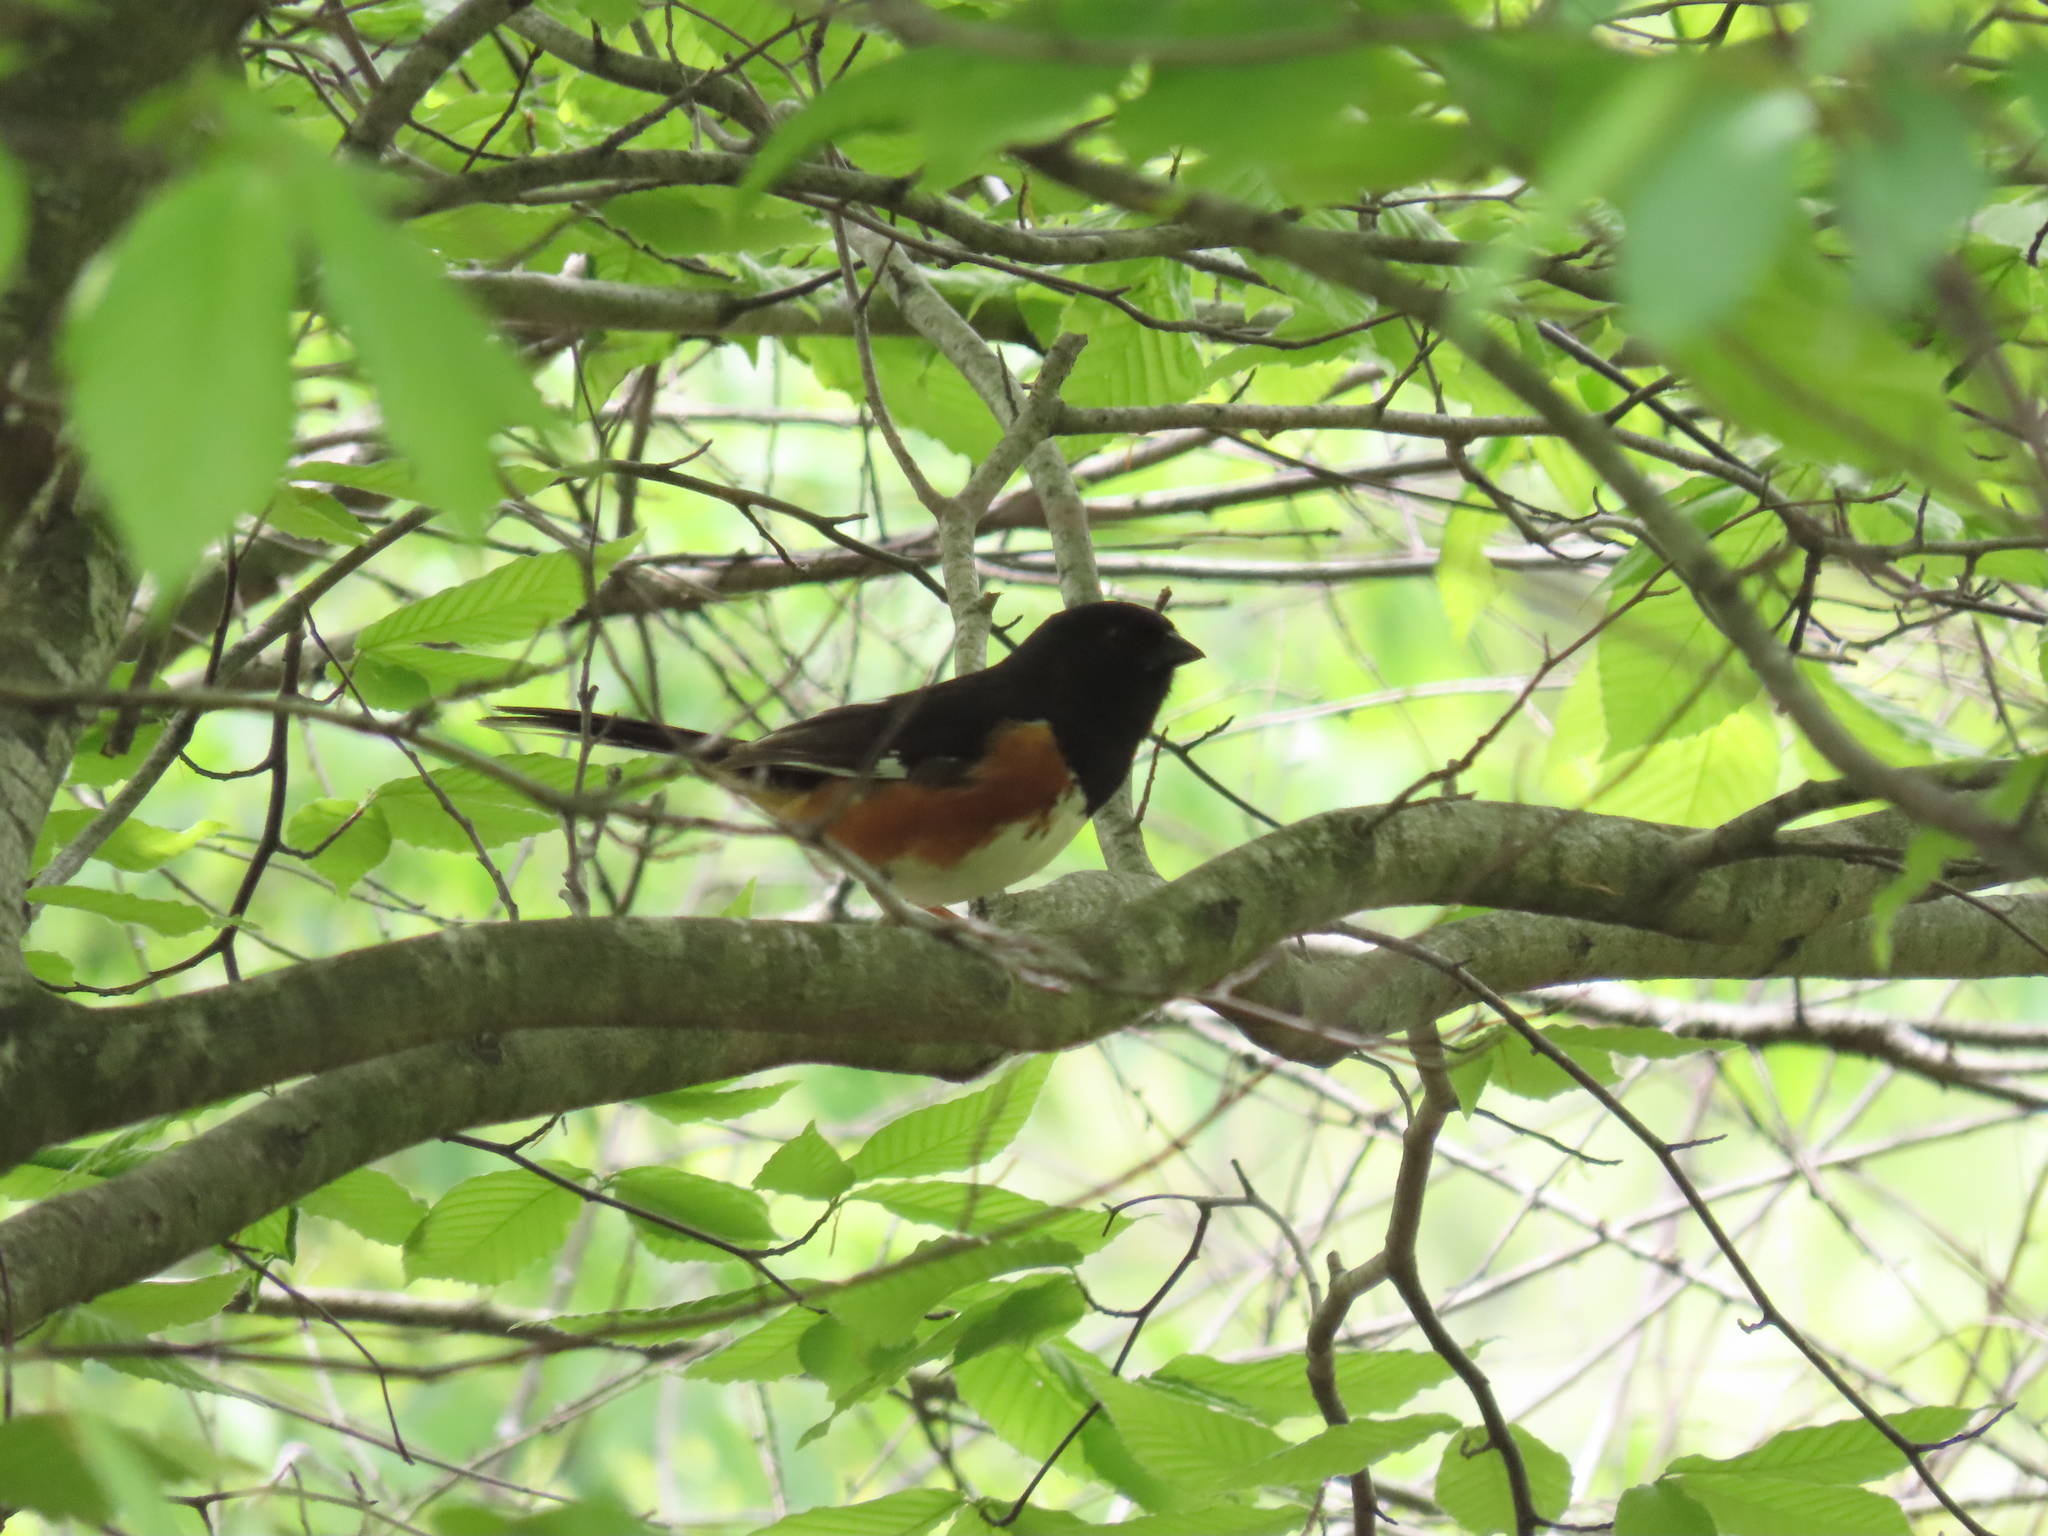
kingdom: Animalia
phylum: Chordata
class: Aves
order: Passeriformes
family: Passerellidae
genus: Pipilo
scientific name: Pipilo erythrophthalmus
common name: Eastern towhee
